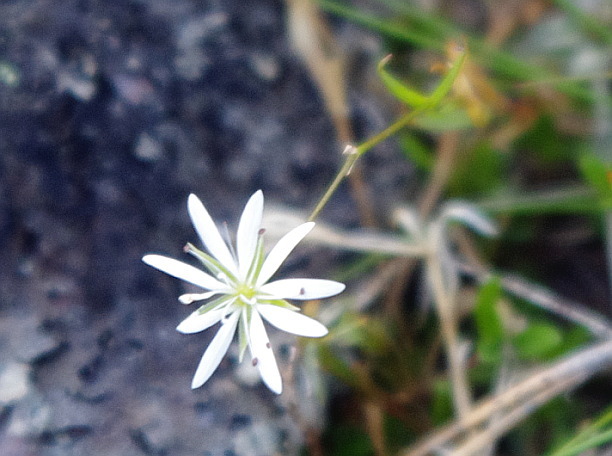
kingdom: Plantae
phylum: Tracheophyta
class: Magnoliopsida
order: Caryophyllales
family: Caryophyllaceae
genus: Stellaria
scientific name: Stellaria palustris
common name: Marsh stitchwort
